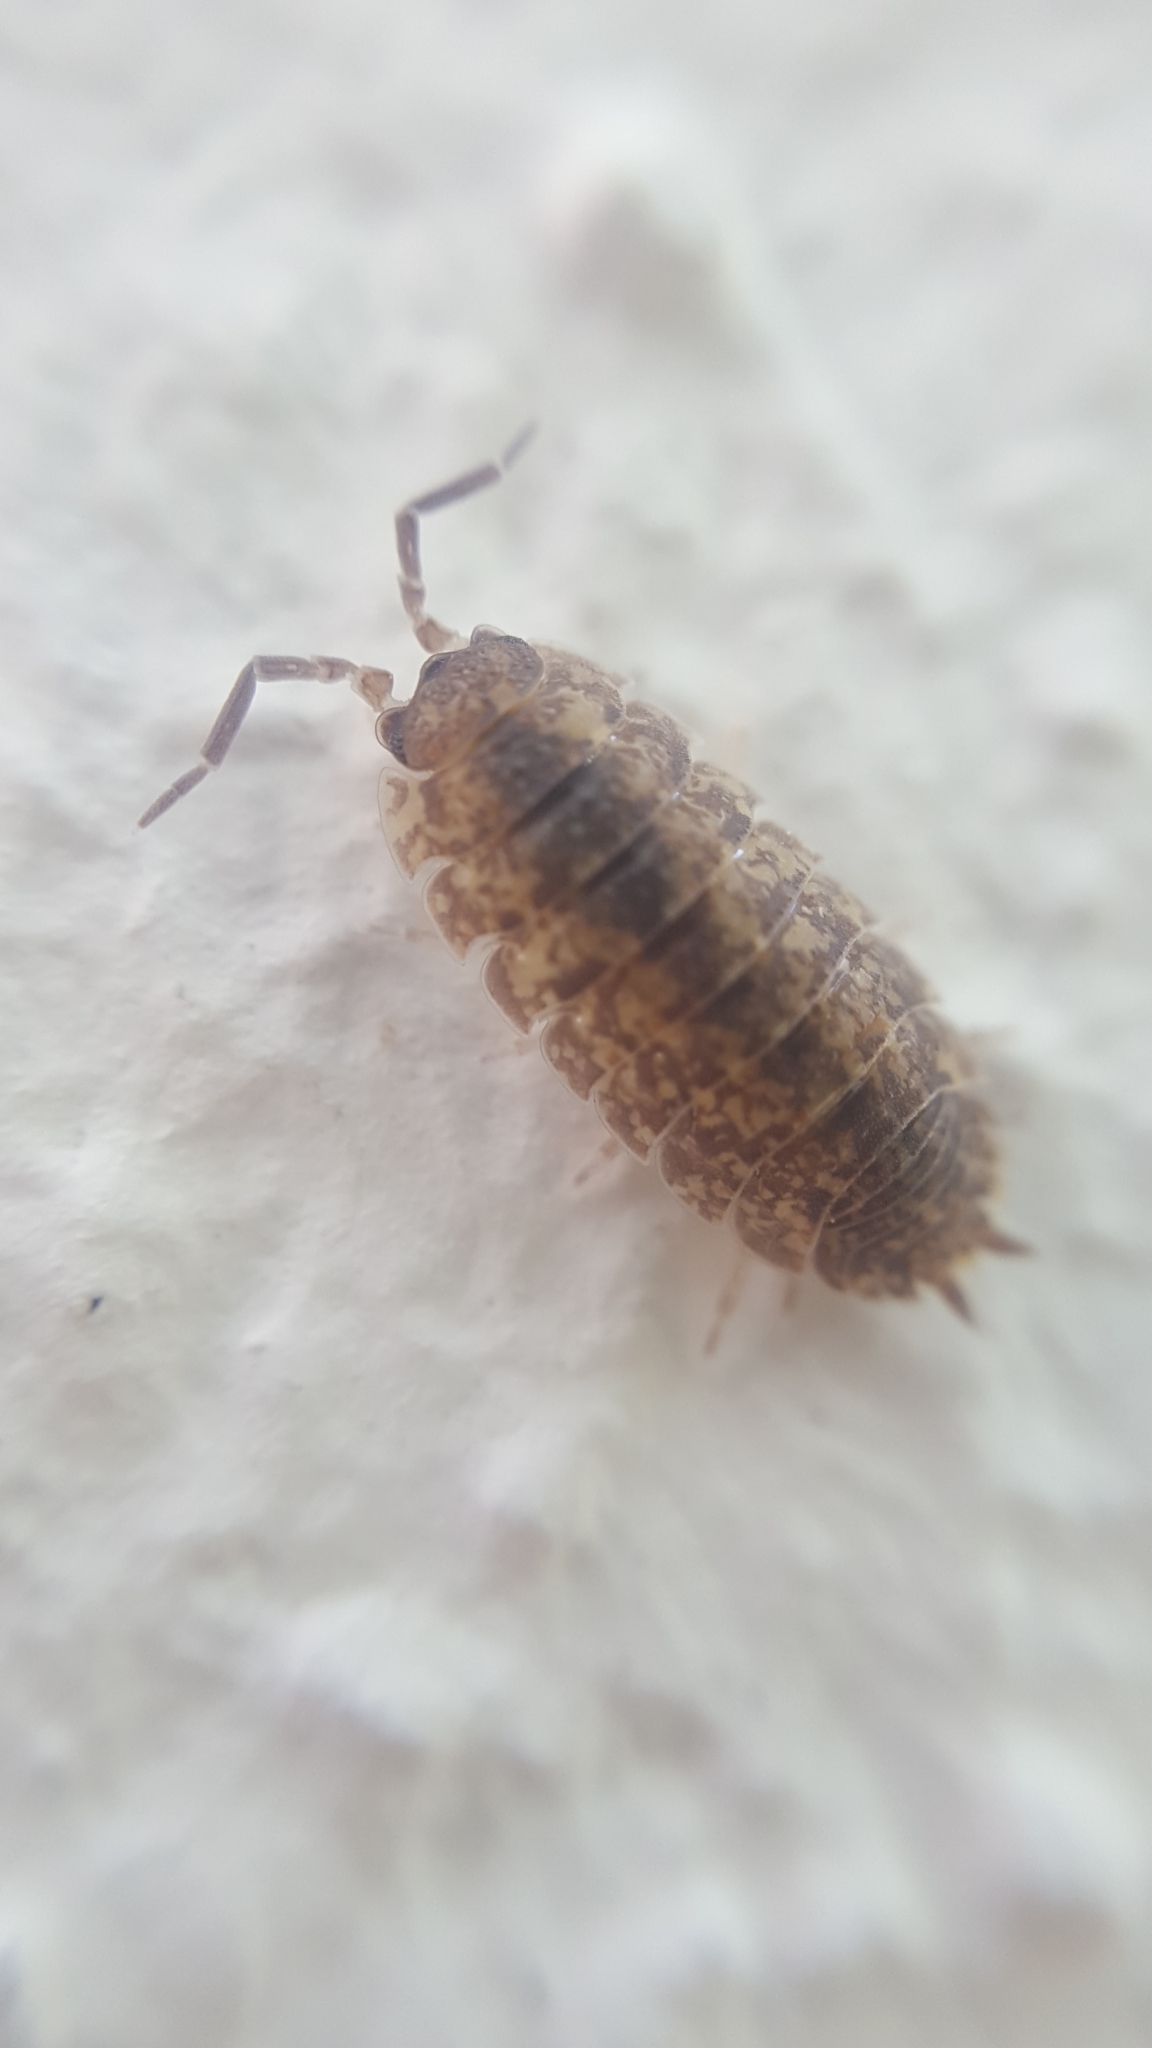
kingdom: Animalia
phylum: Arthropoda
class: Malacostraca
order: Isopoda
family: Porcellionidae
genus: Porcellio
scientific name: Porcellio scaber
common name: Common rough woodlouse
